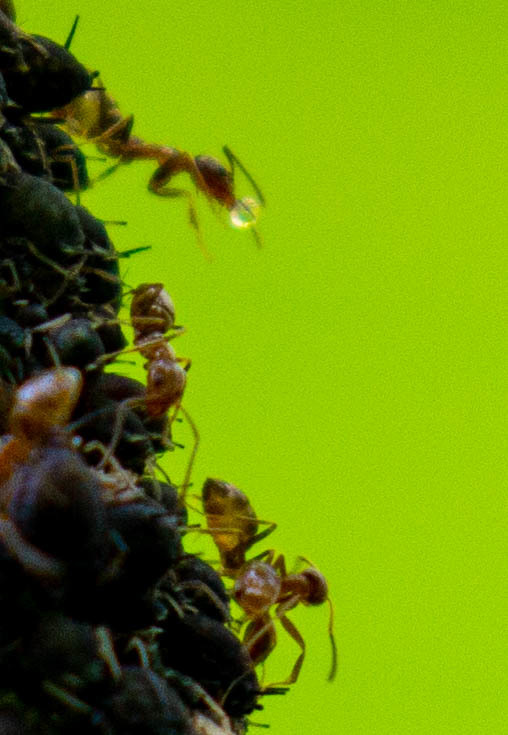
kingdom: Animalia
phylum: Arthropoda
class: Insecta
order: Hymenoptera
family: Formicidae
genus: Linepithema
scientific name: Linepithema humile
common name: Argentine ant
